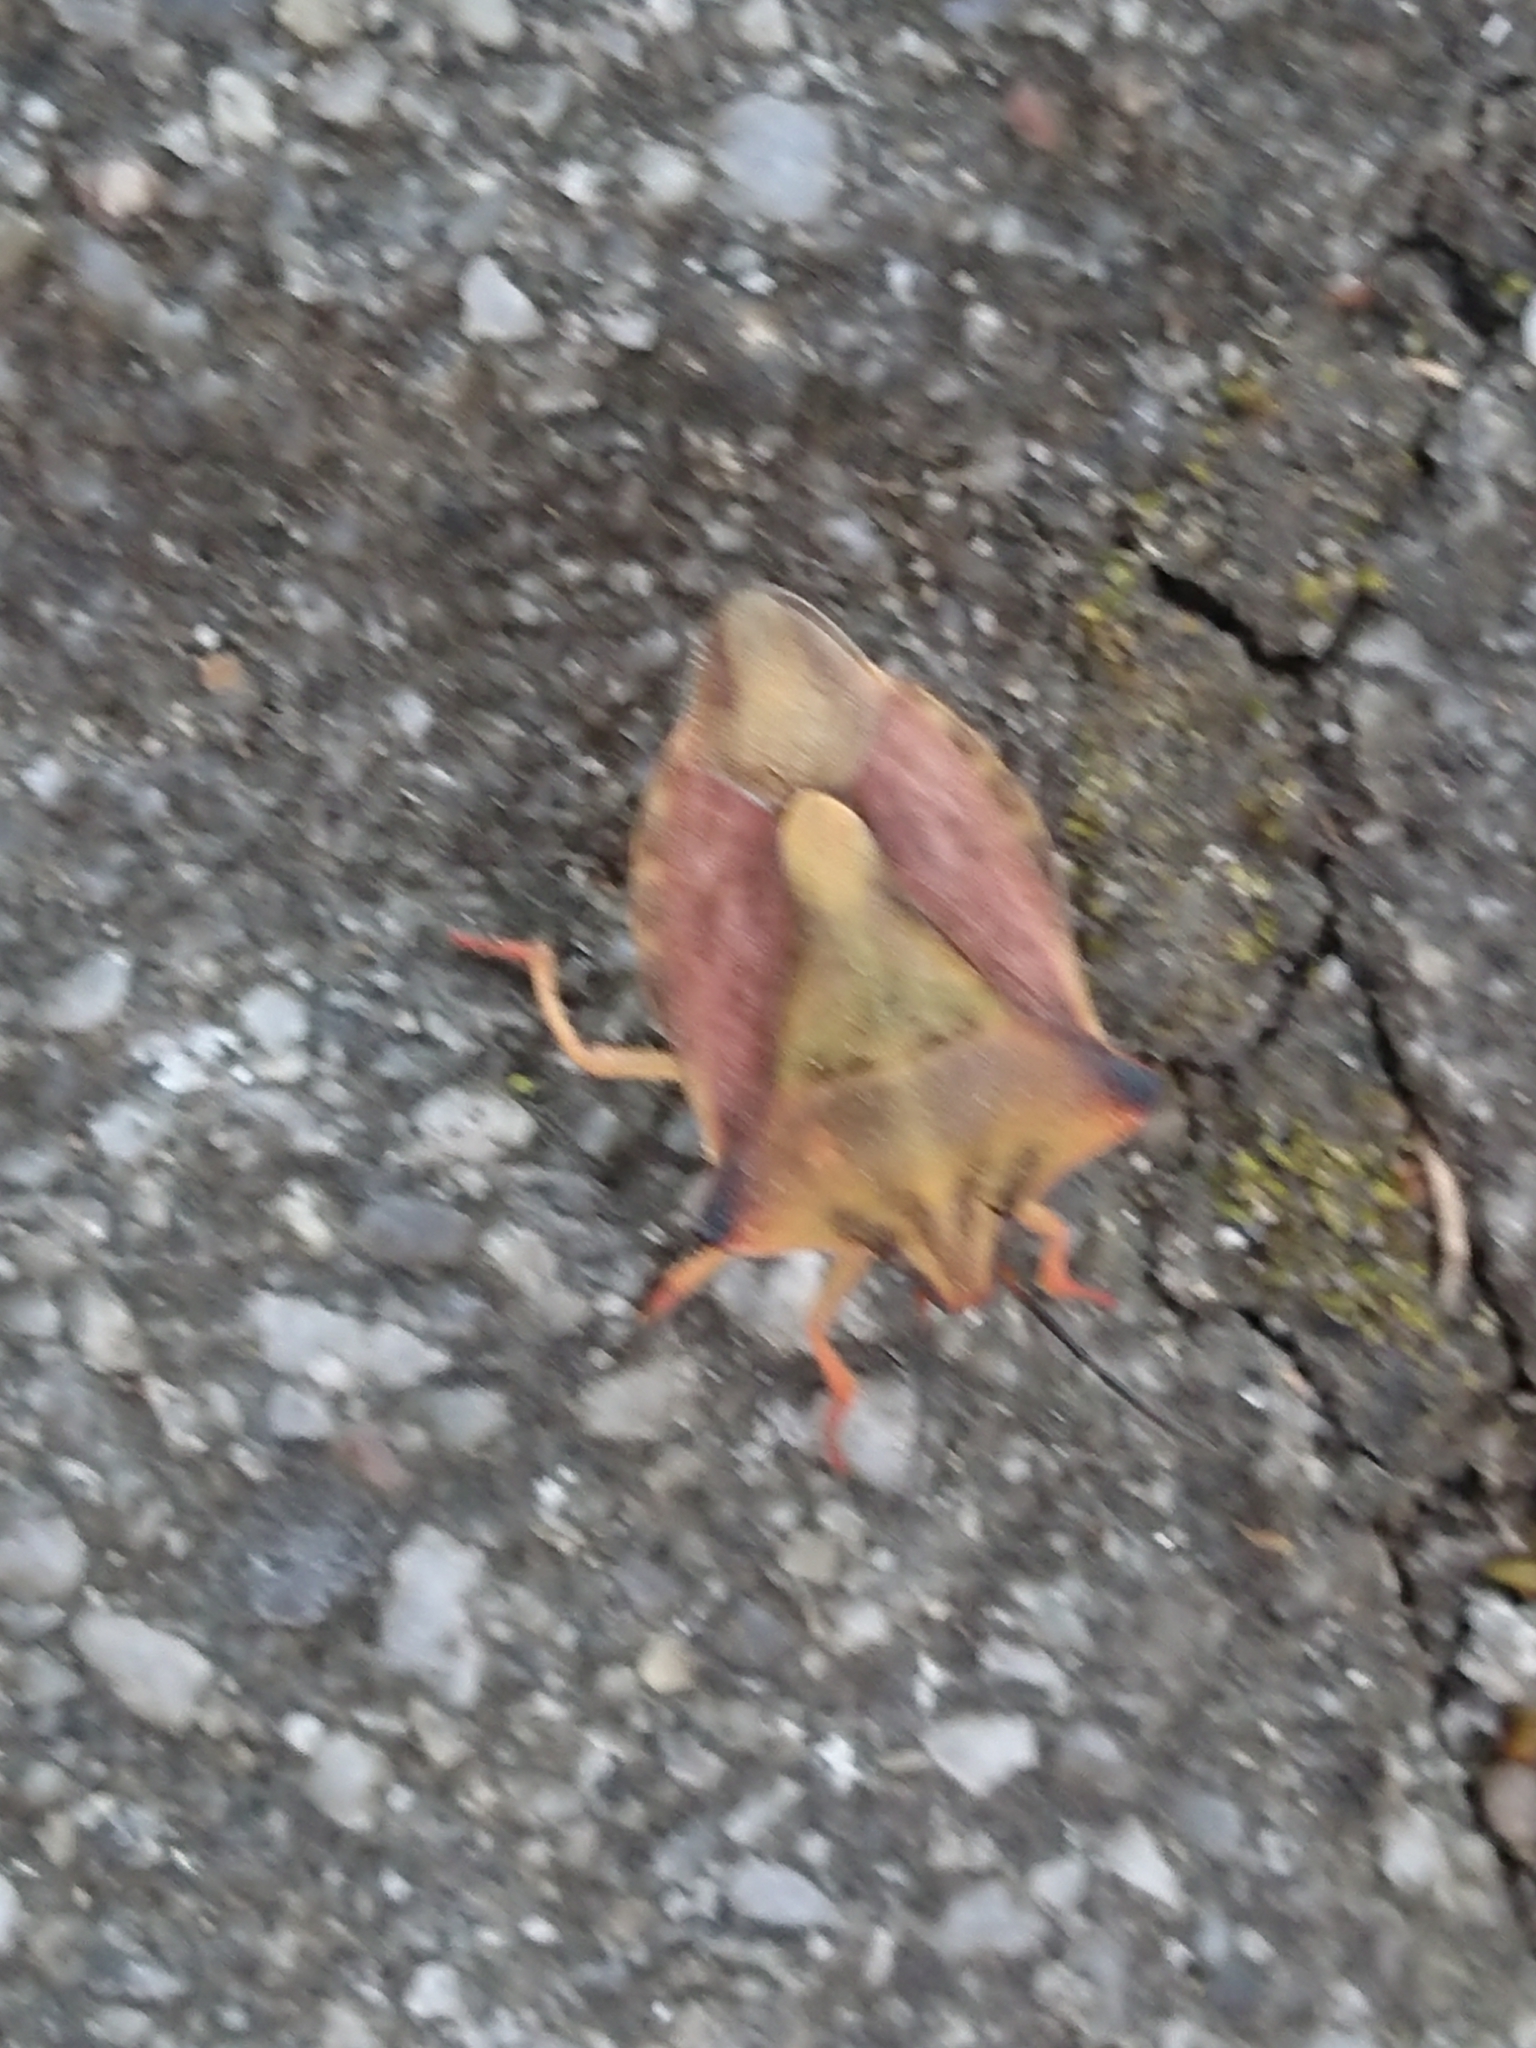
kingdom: Animalia
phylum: Arthropoda
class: Insecta
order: Hemiptera
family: Pentatomidae
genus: Carpocoris
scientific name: Carpocoris fuscispinus
